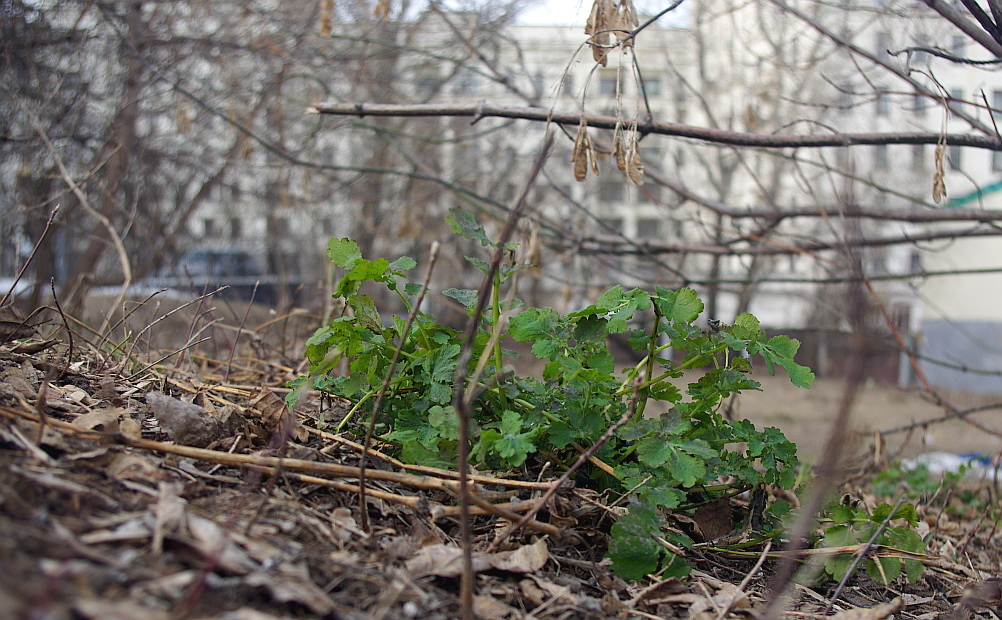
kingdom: Plantae
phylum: Tracheophyta
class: Magnoliopsida
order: Ranunculales
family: Papaveraceae
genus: Chelidonium
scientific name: Chelidonium majus
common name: Greater celandine
